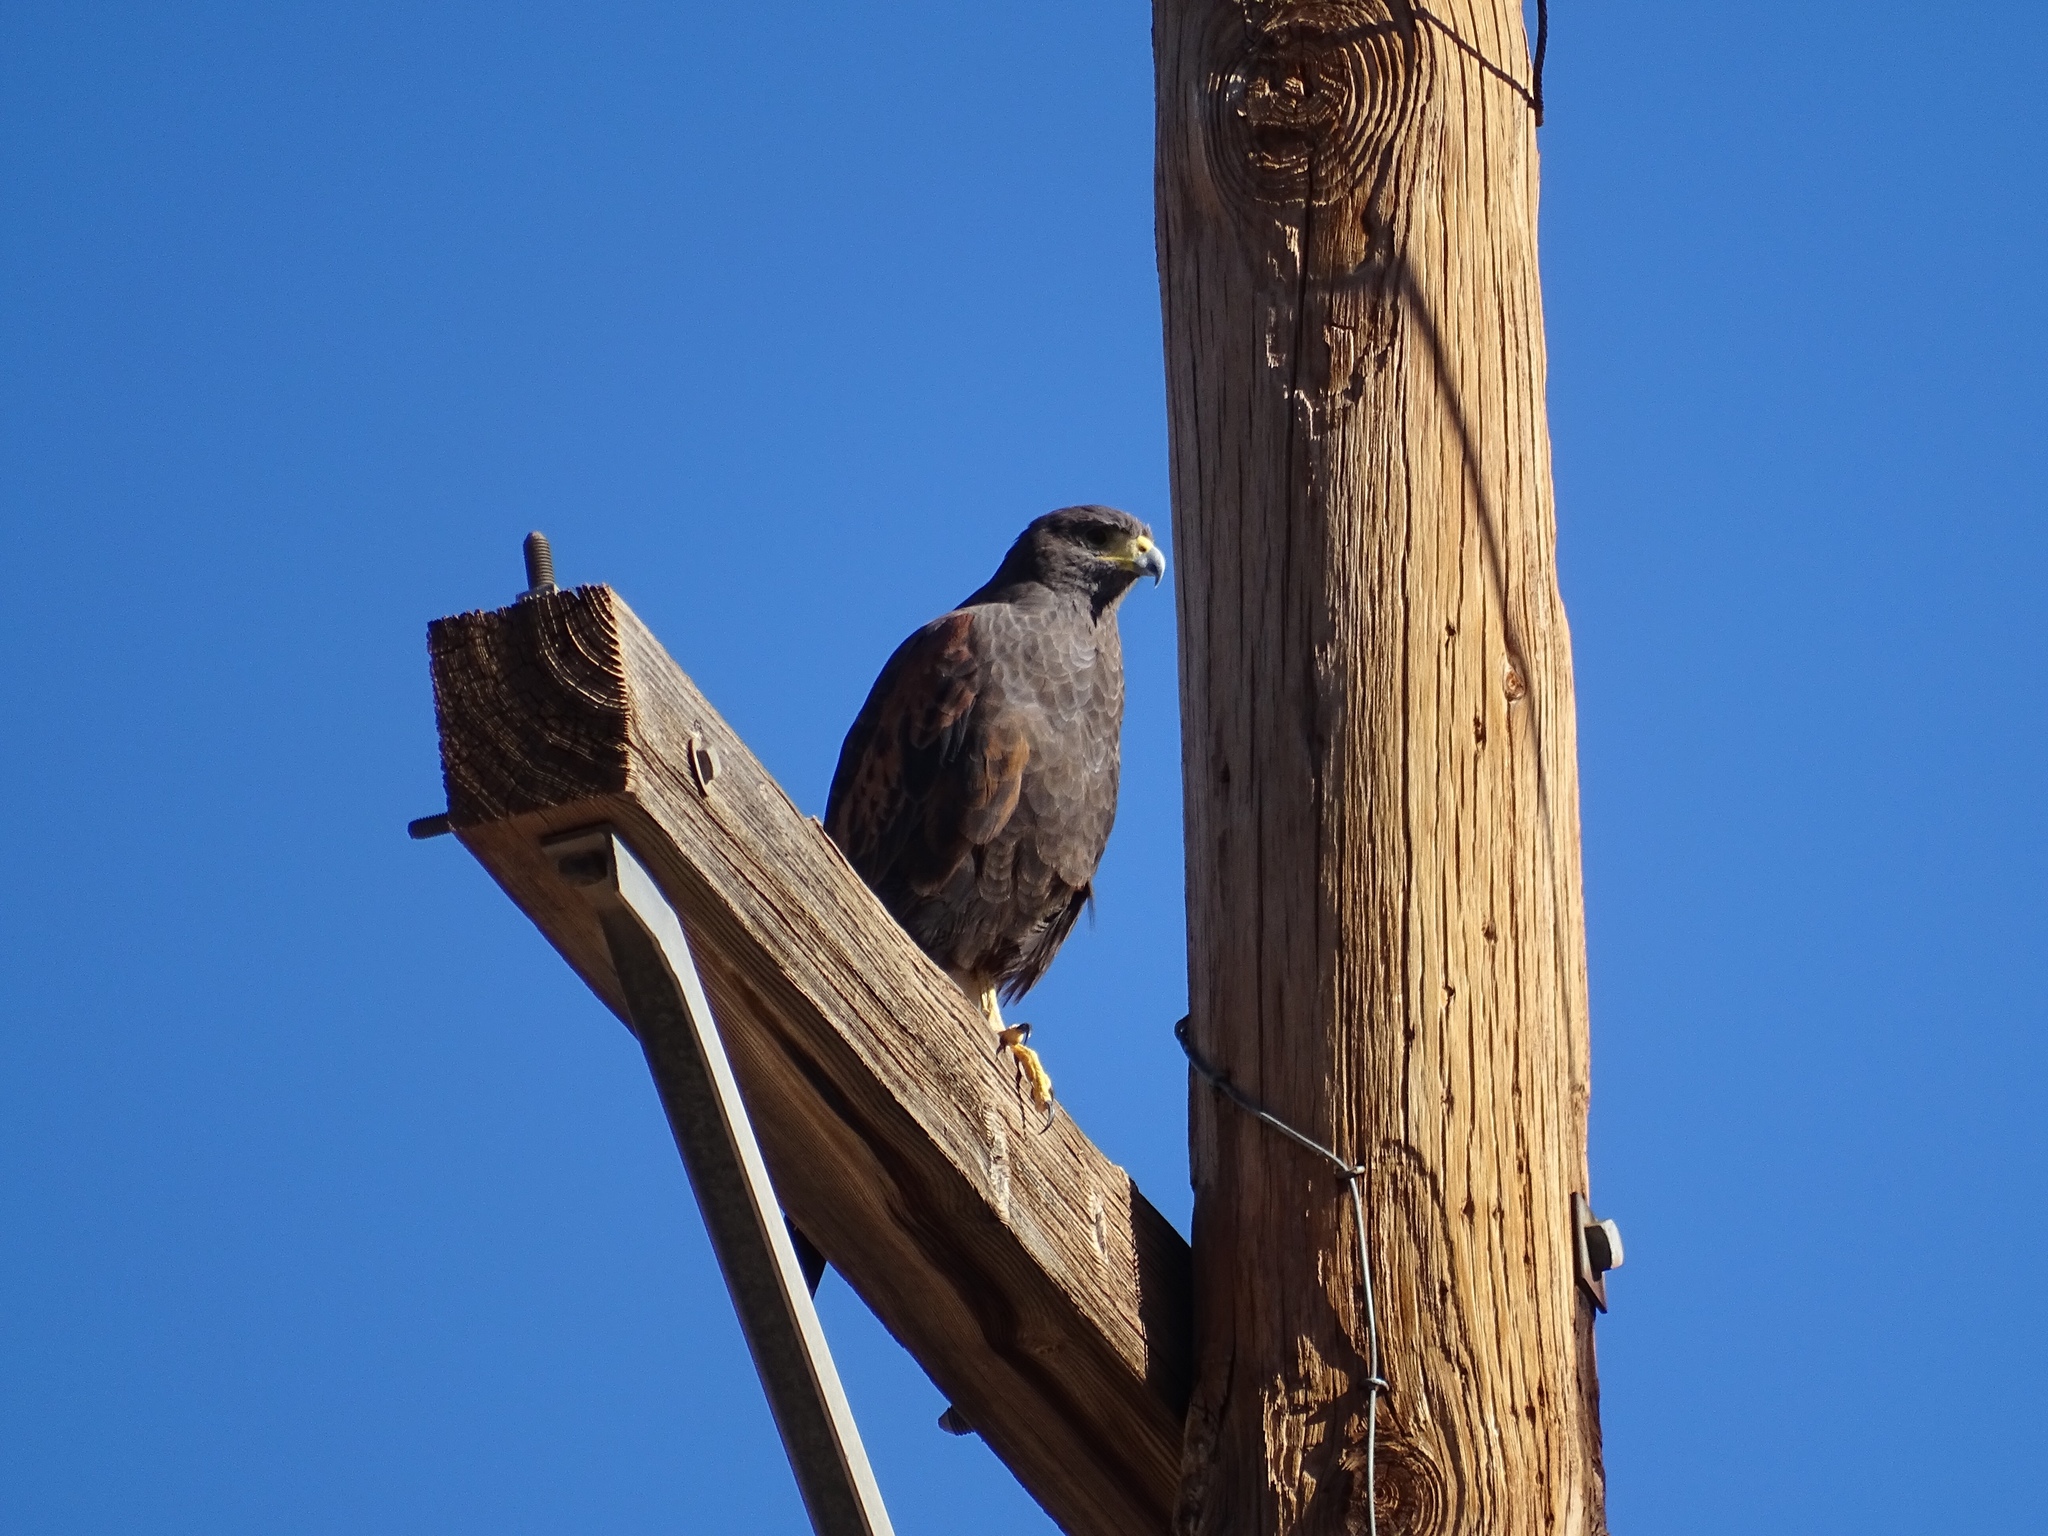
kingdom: Animalia
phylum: Chordata
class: Aves
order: Accipitriformes
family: Accipitridae
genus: Parabuteo
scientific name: Parabuteo unicinctus
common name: Harris's hawk
